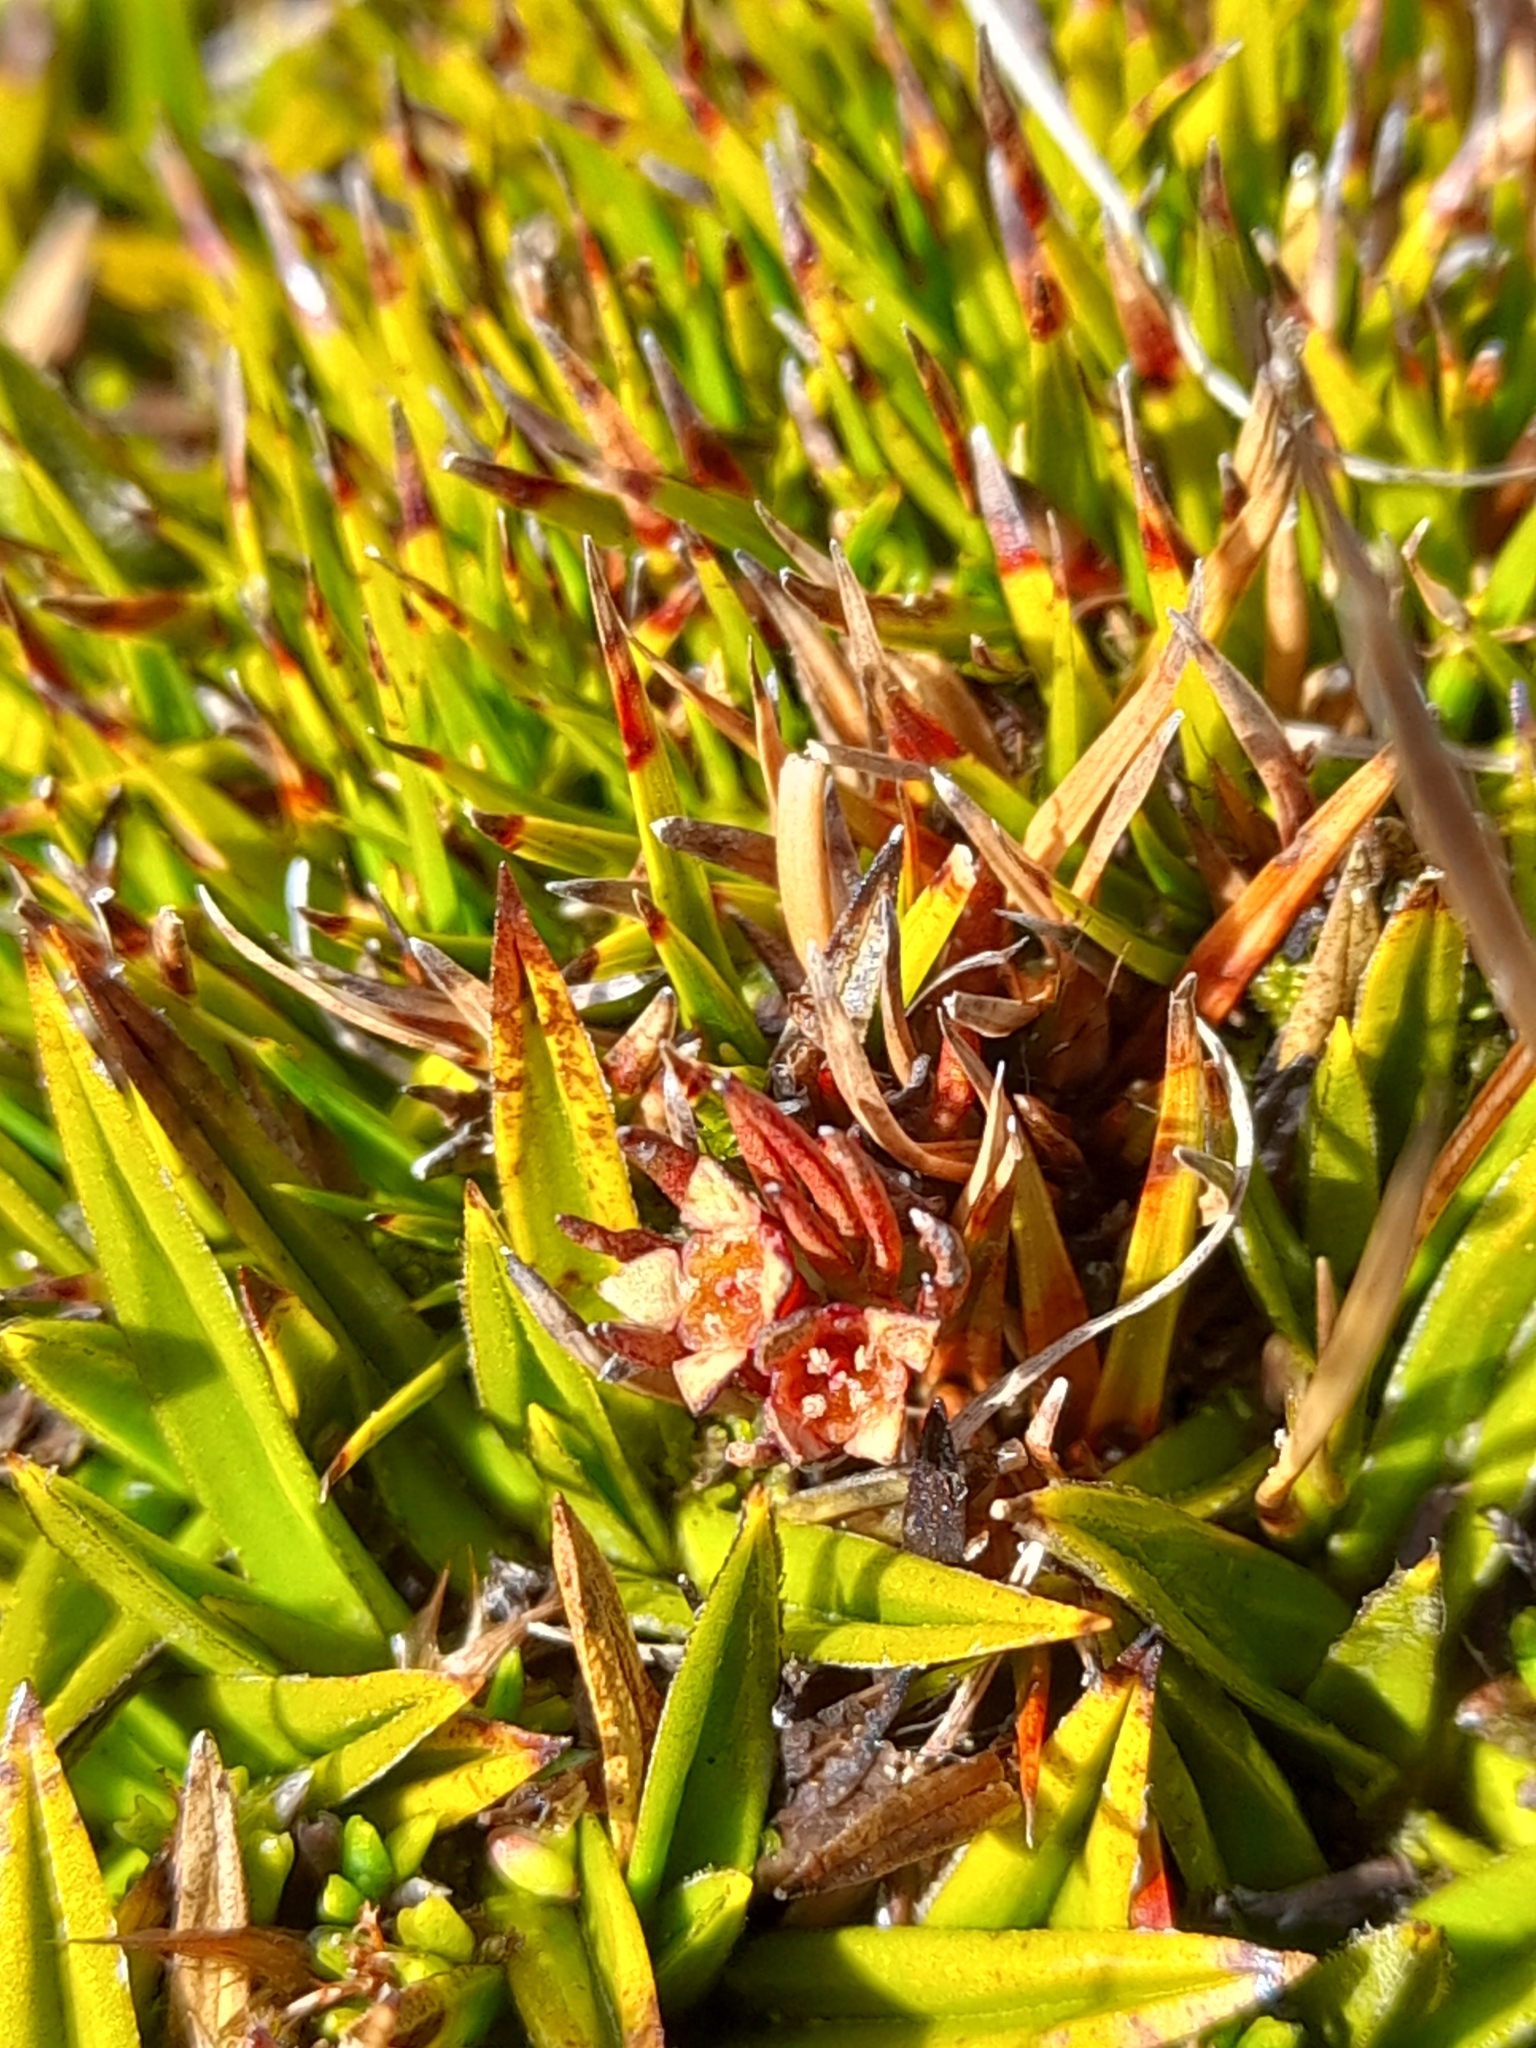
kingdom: Plantae
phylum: Tracheophyta
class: Magnoliopsida
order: Santalales
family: Nanodeaceae
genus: Nanodea
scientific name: Nanodea muscosa
